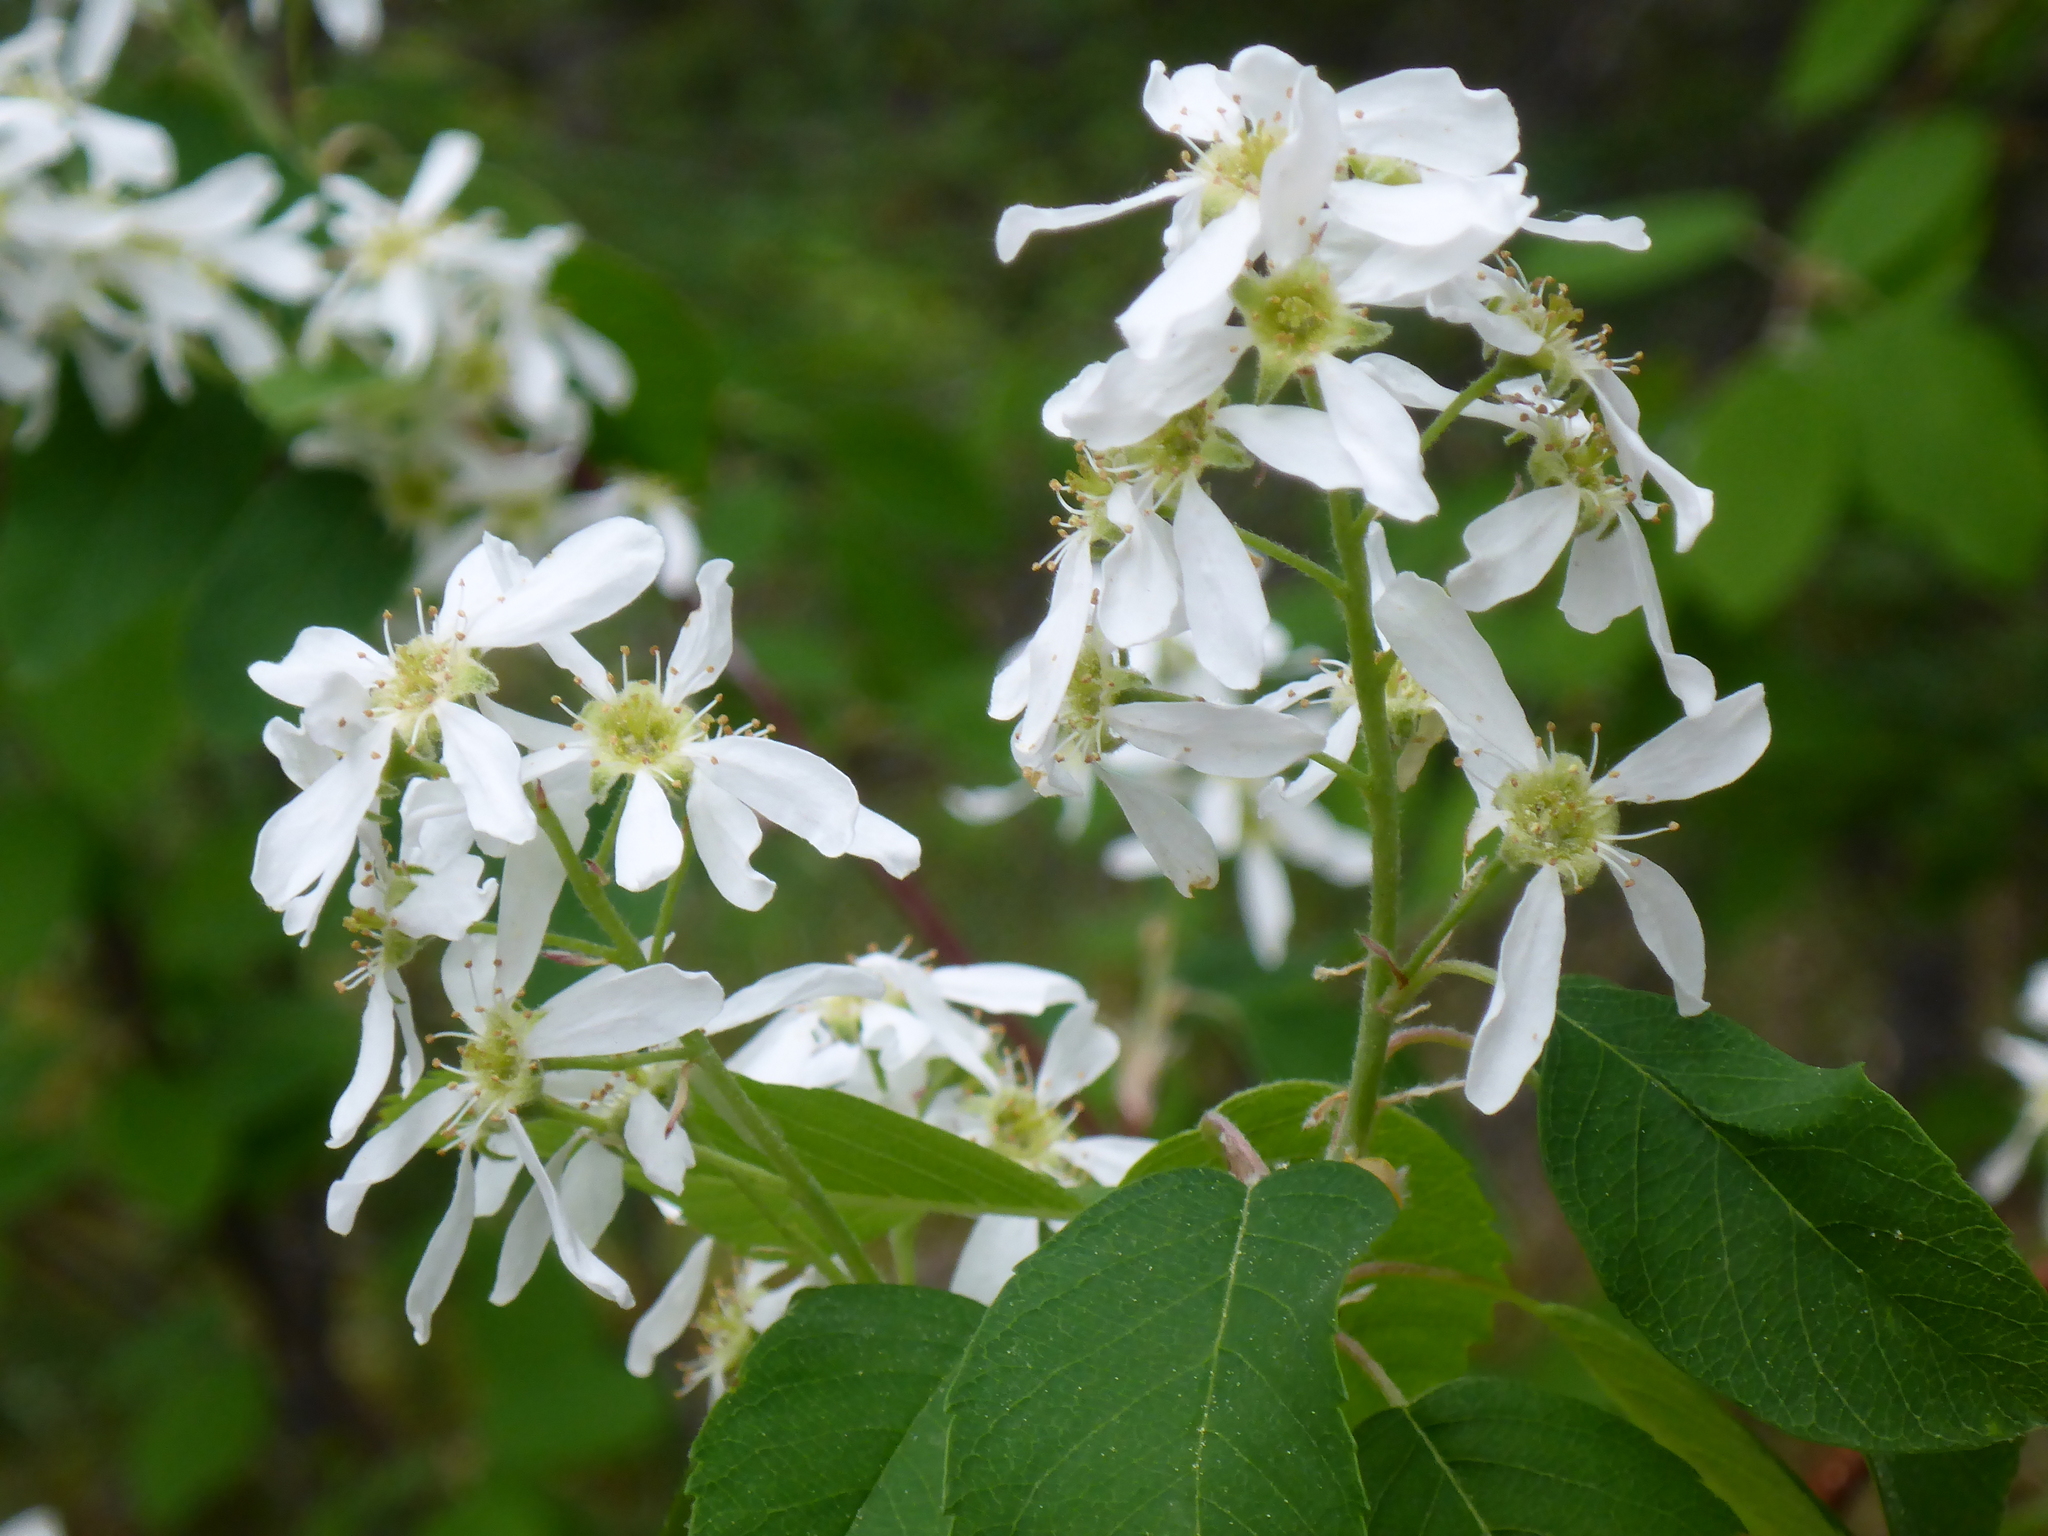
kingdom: Plantae
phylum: Tracheophyta
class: Magnoliopsida
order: Rosales
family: Rosaceae
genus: Amelanchier
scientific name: Amelanchier alnifolia
